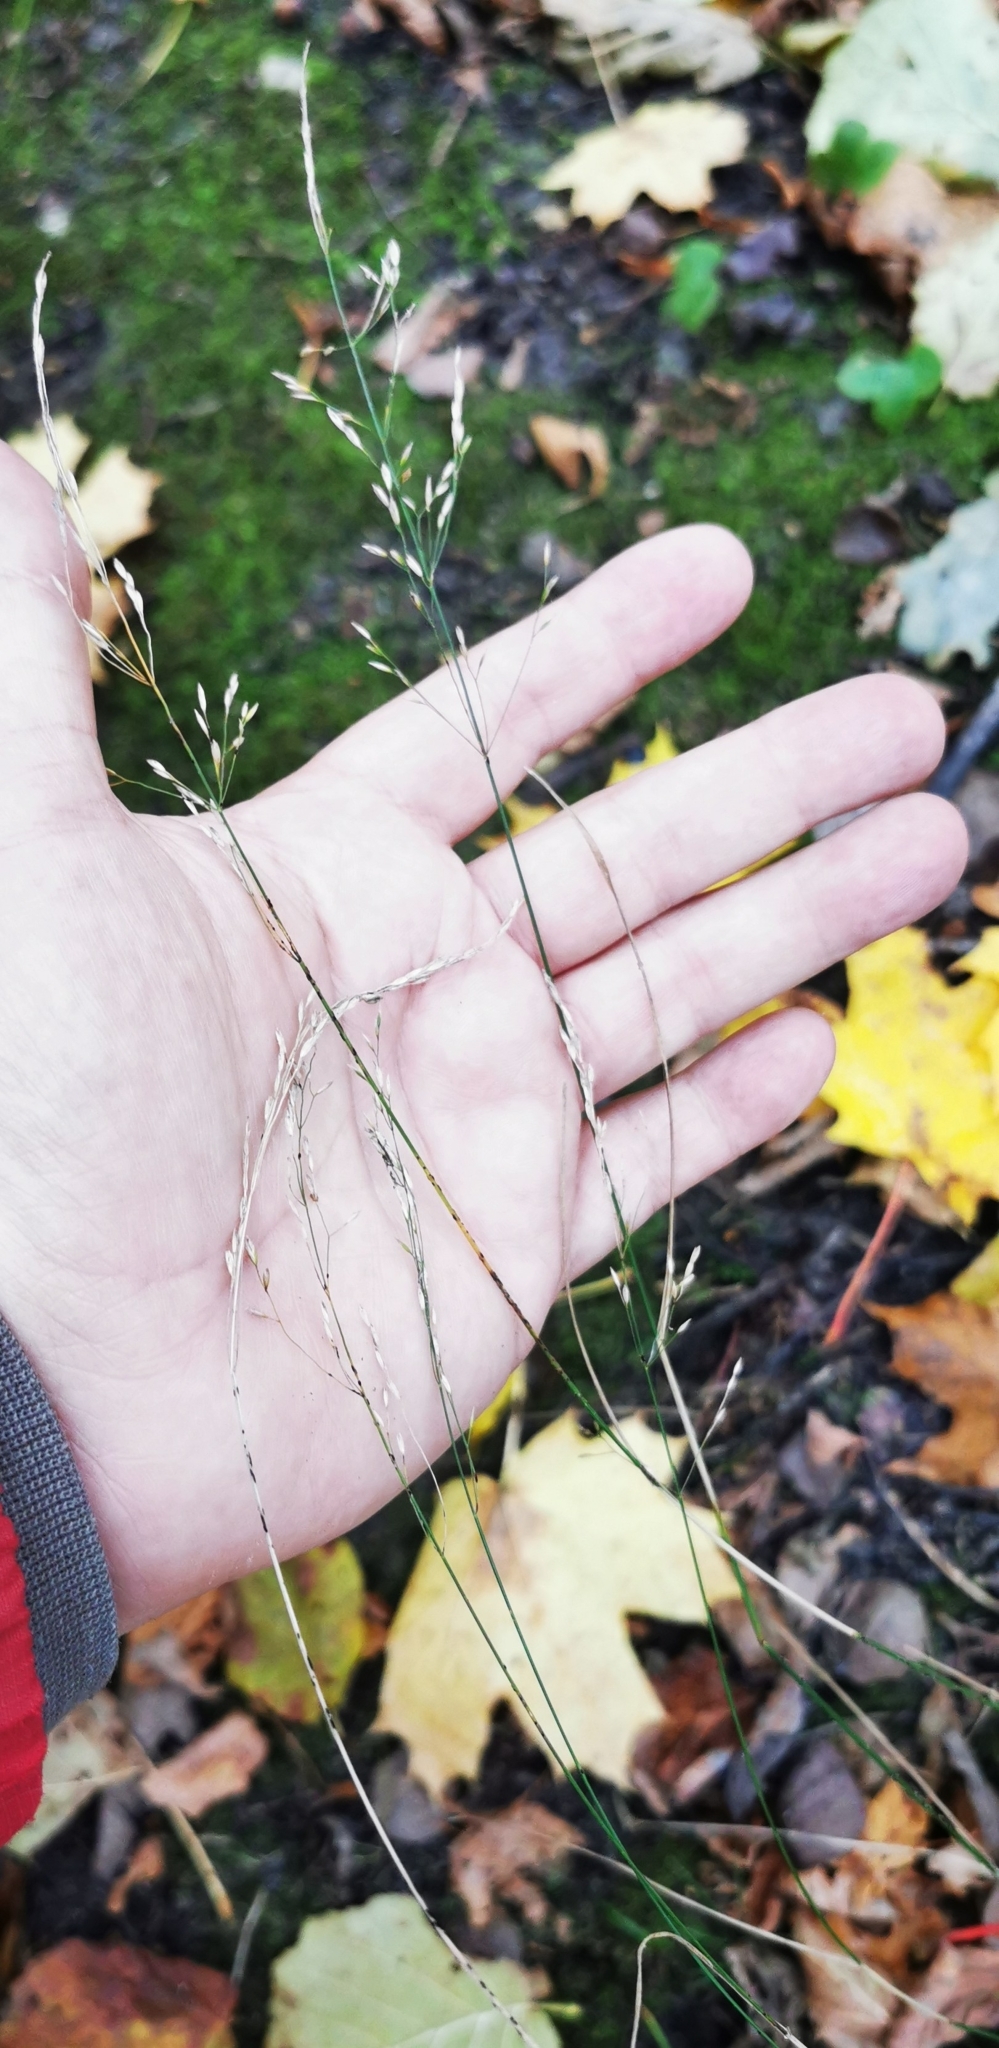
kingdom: Plantae
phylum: Tracheophyta
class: Liliopsida
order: Poales
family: Poaceae
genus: Poa
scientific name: Poa nemoralis
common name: Wood bluegrass
